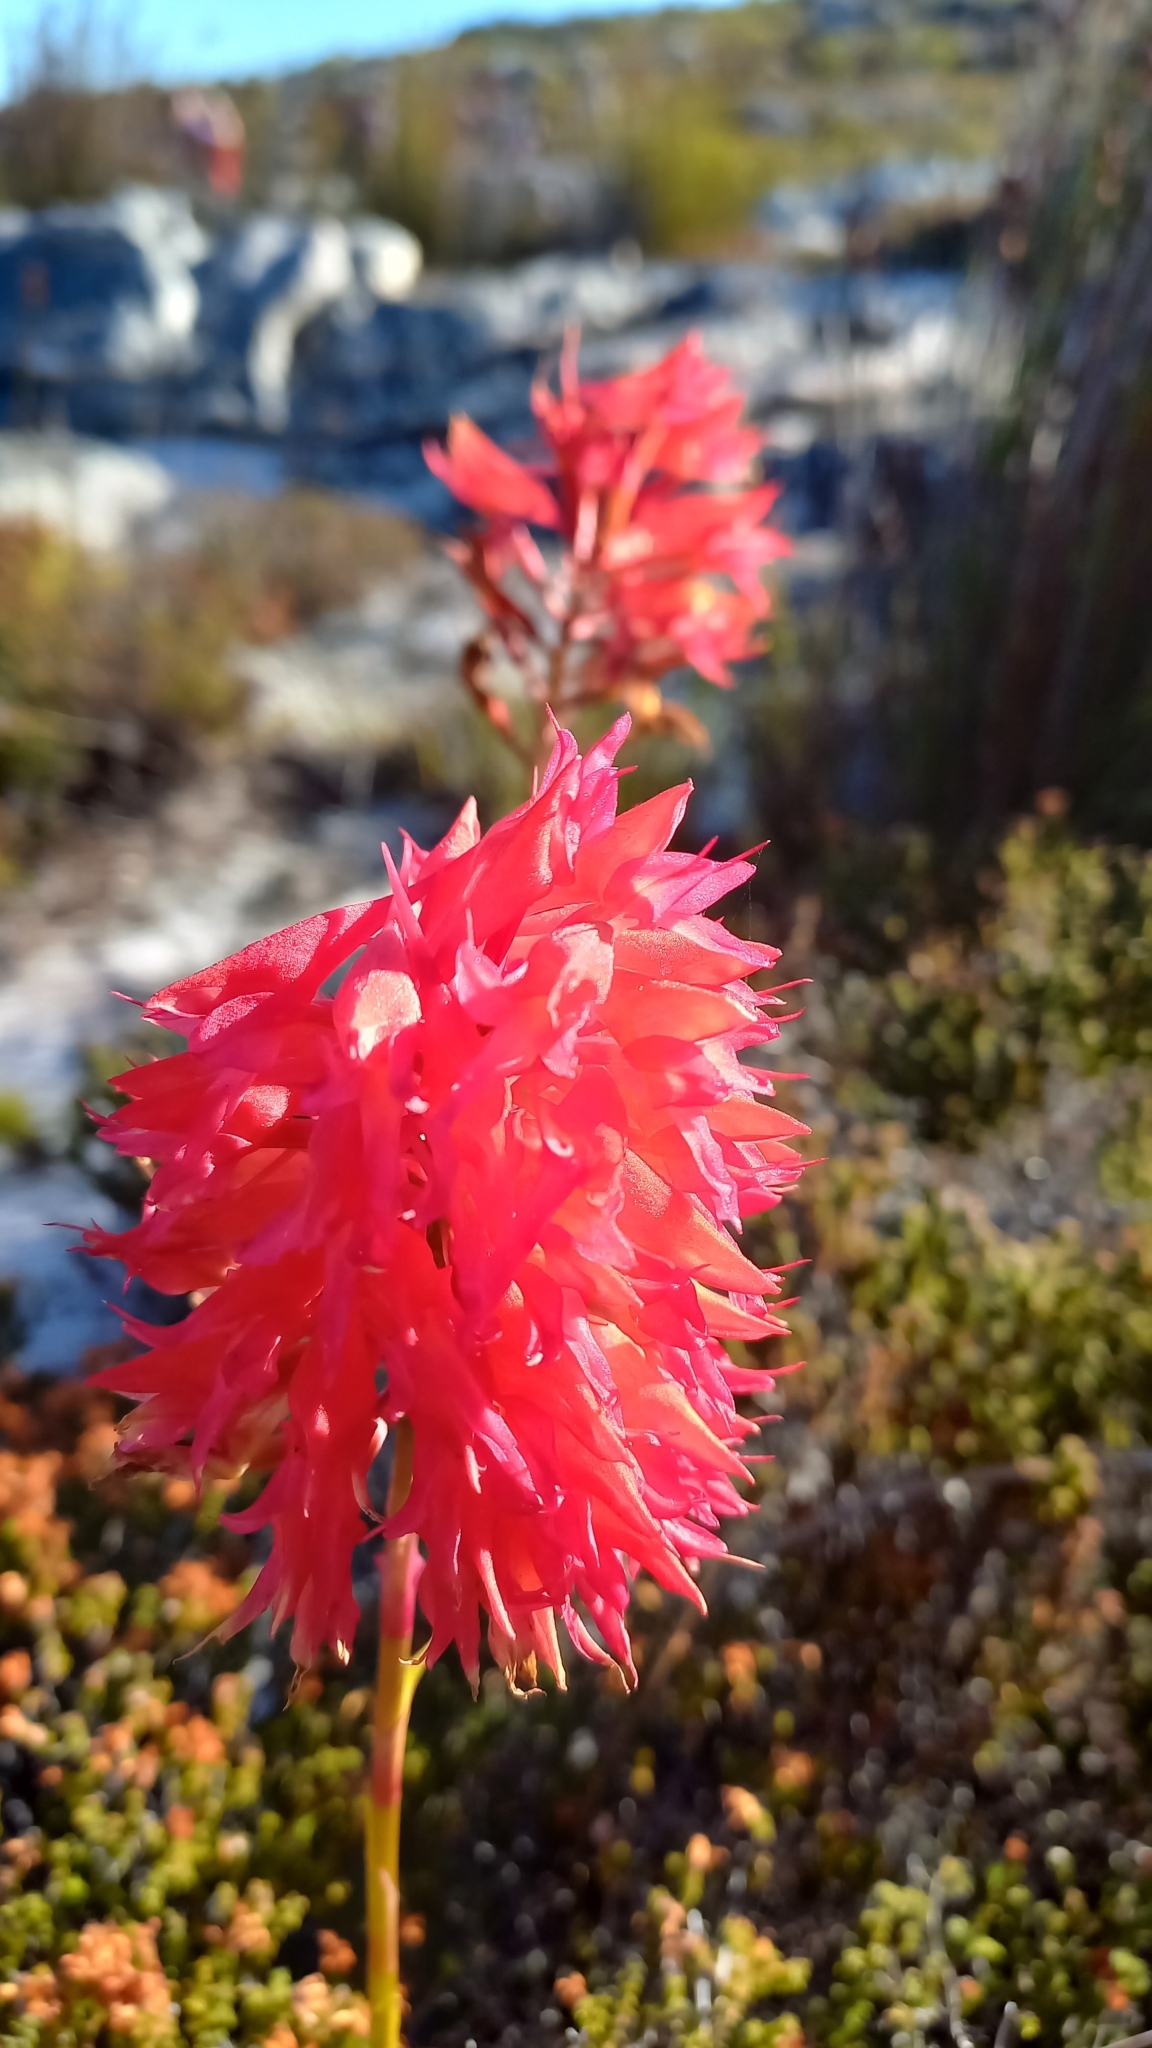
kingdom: Plantae
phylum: Tracheophyta
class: Liliopsida
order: Asparagales
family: Orchidaceae
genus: Disa
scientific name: Disa ferruginea
